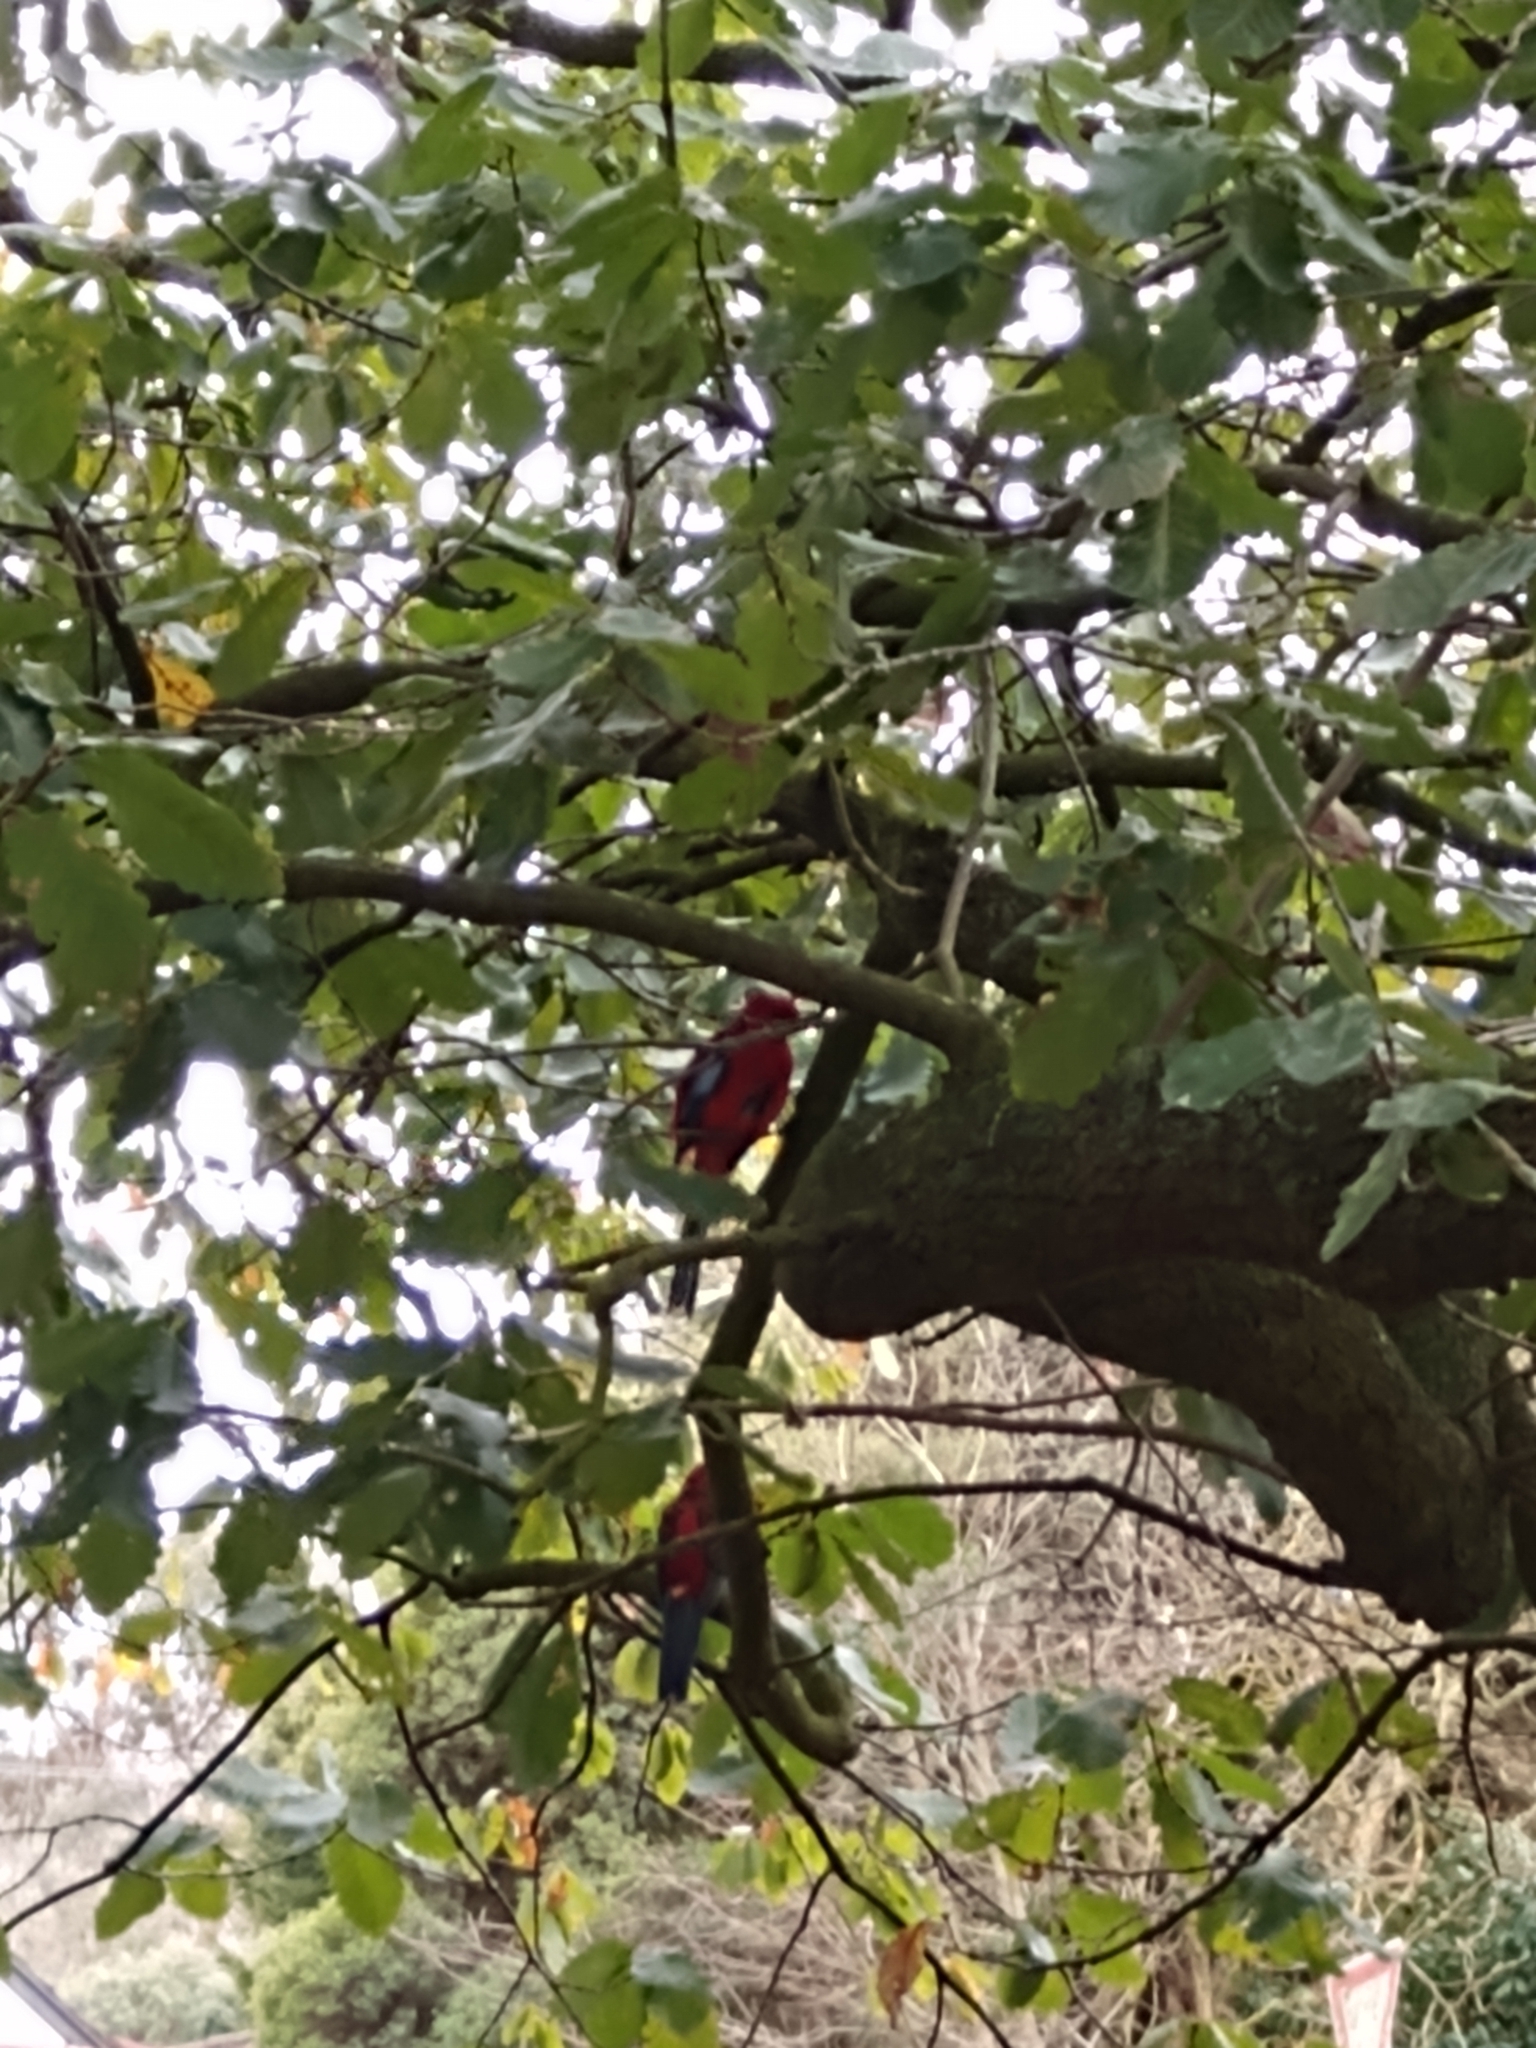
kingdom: Animalia
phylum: Chordata
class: Aves
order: Psittaciformes
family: Psittacidae
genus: Platycercus
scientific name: Platycercus elegans
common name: Crimson rosella
